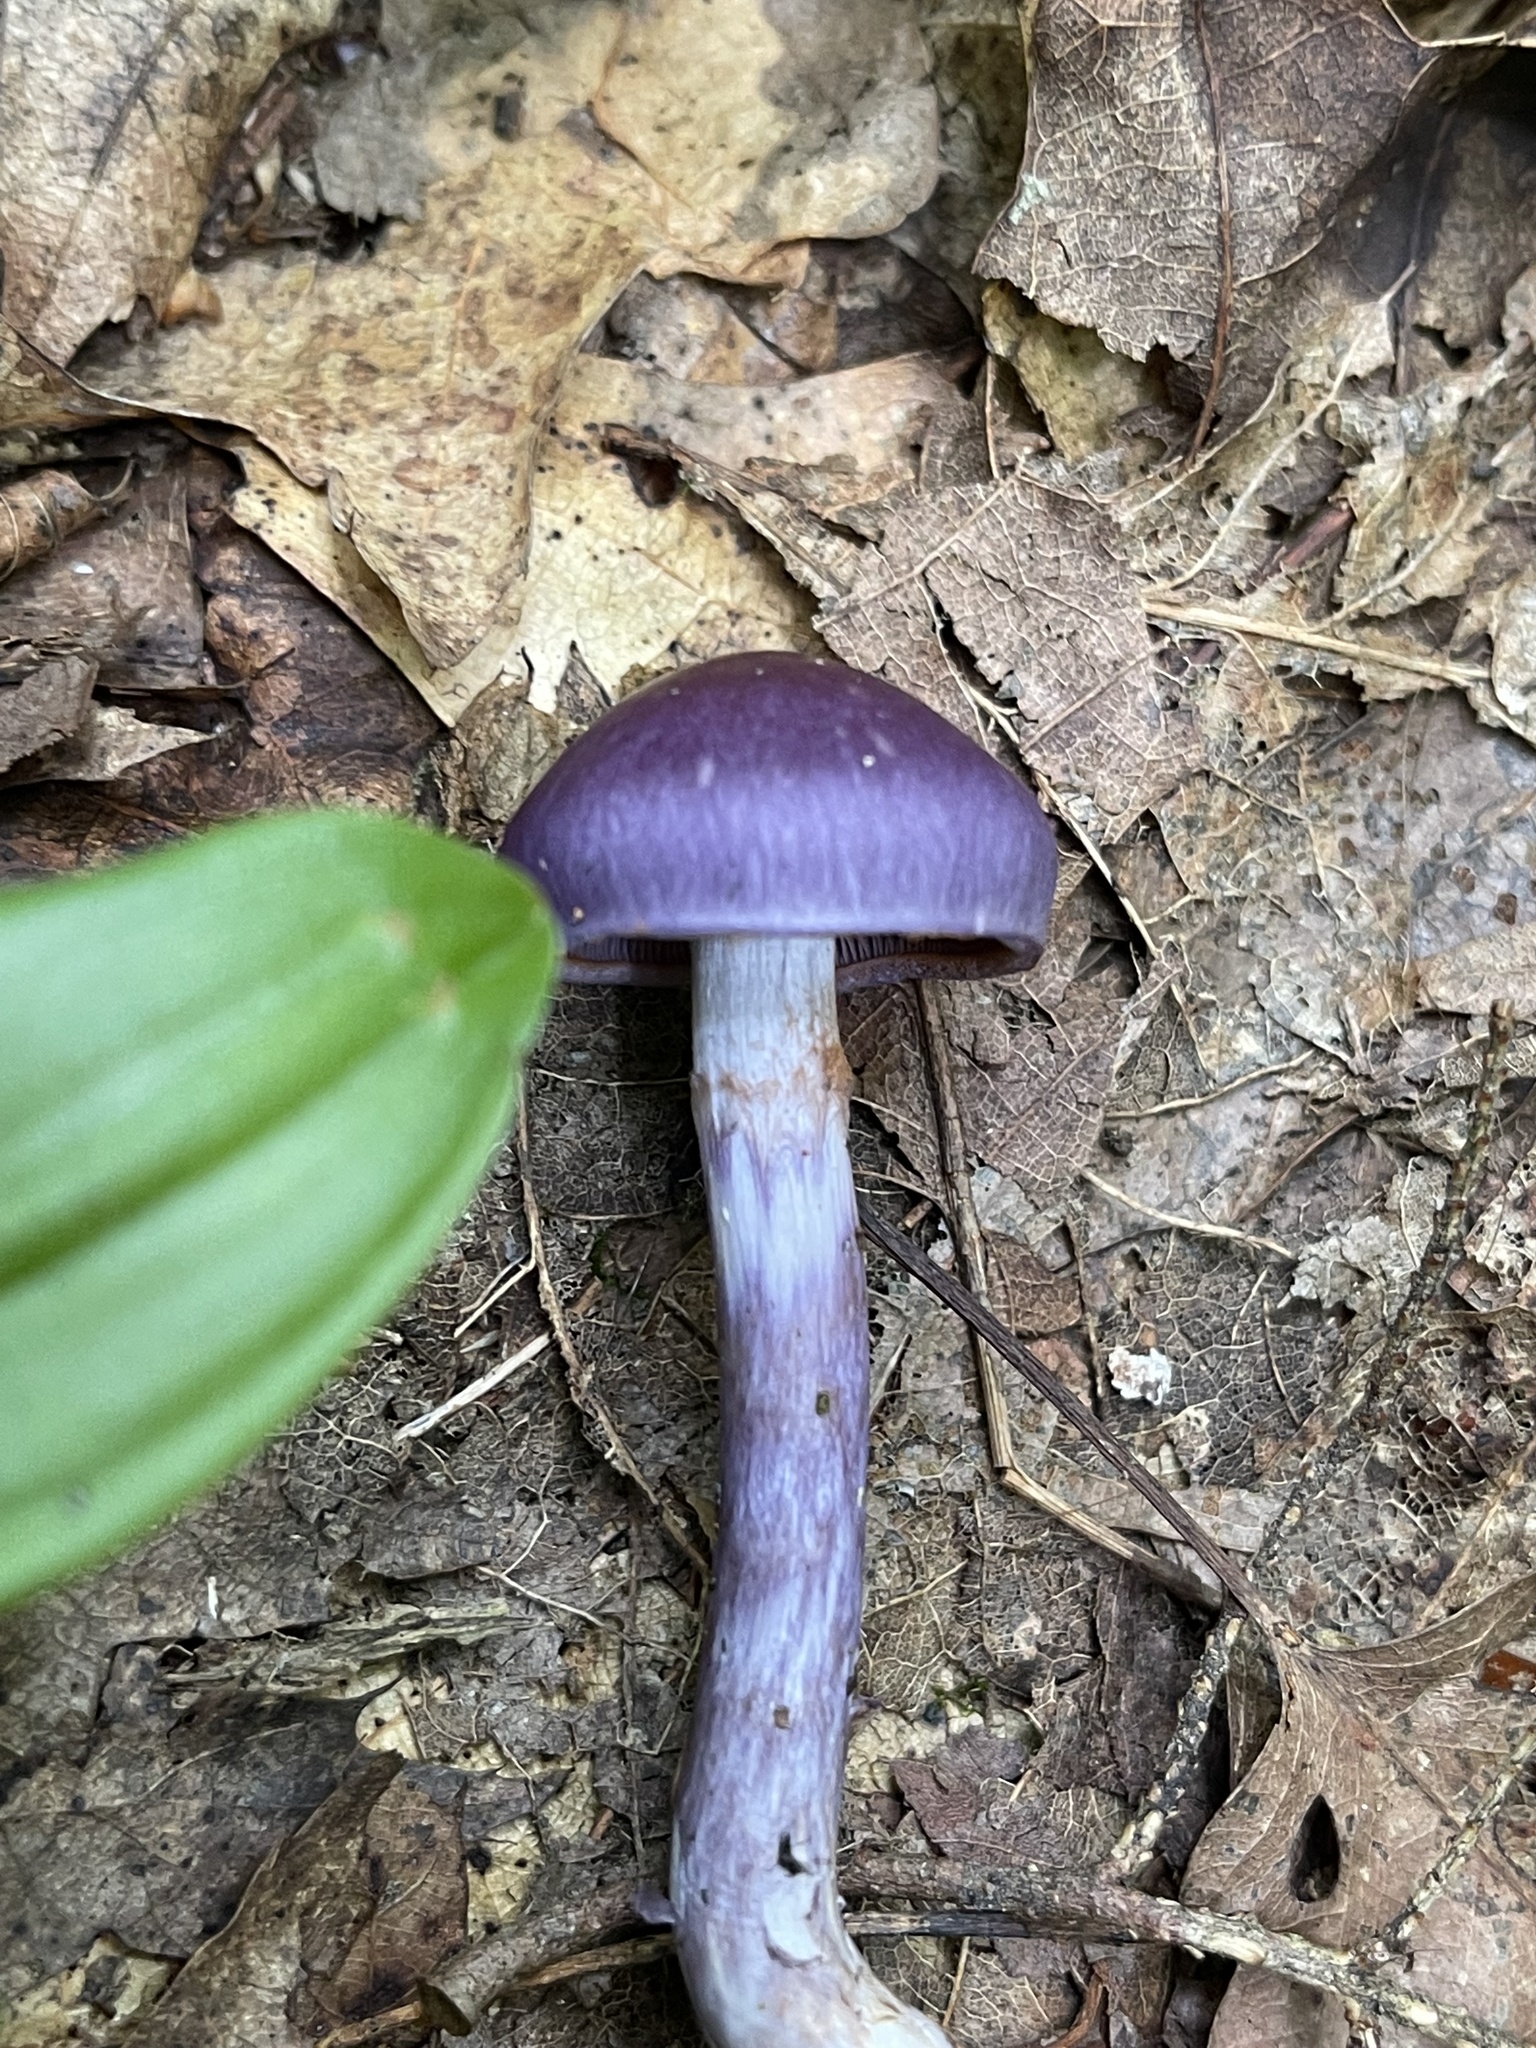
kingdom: Fungi
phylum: Basidiomycota
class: Agaricomycetes
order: Agaricales
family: Cortinariaceae
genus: Cortinarius
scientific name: Cortinarius iodes
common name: Viscid violet cort
